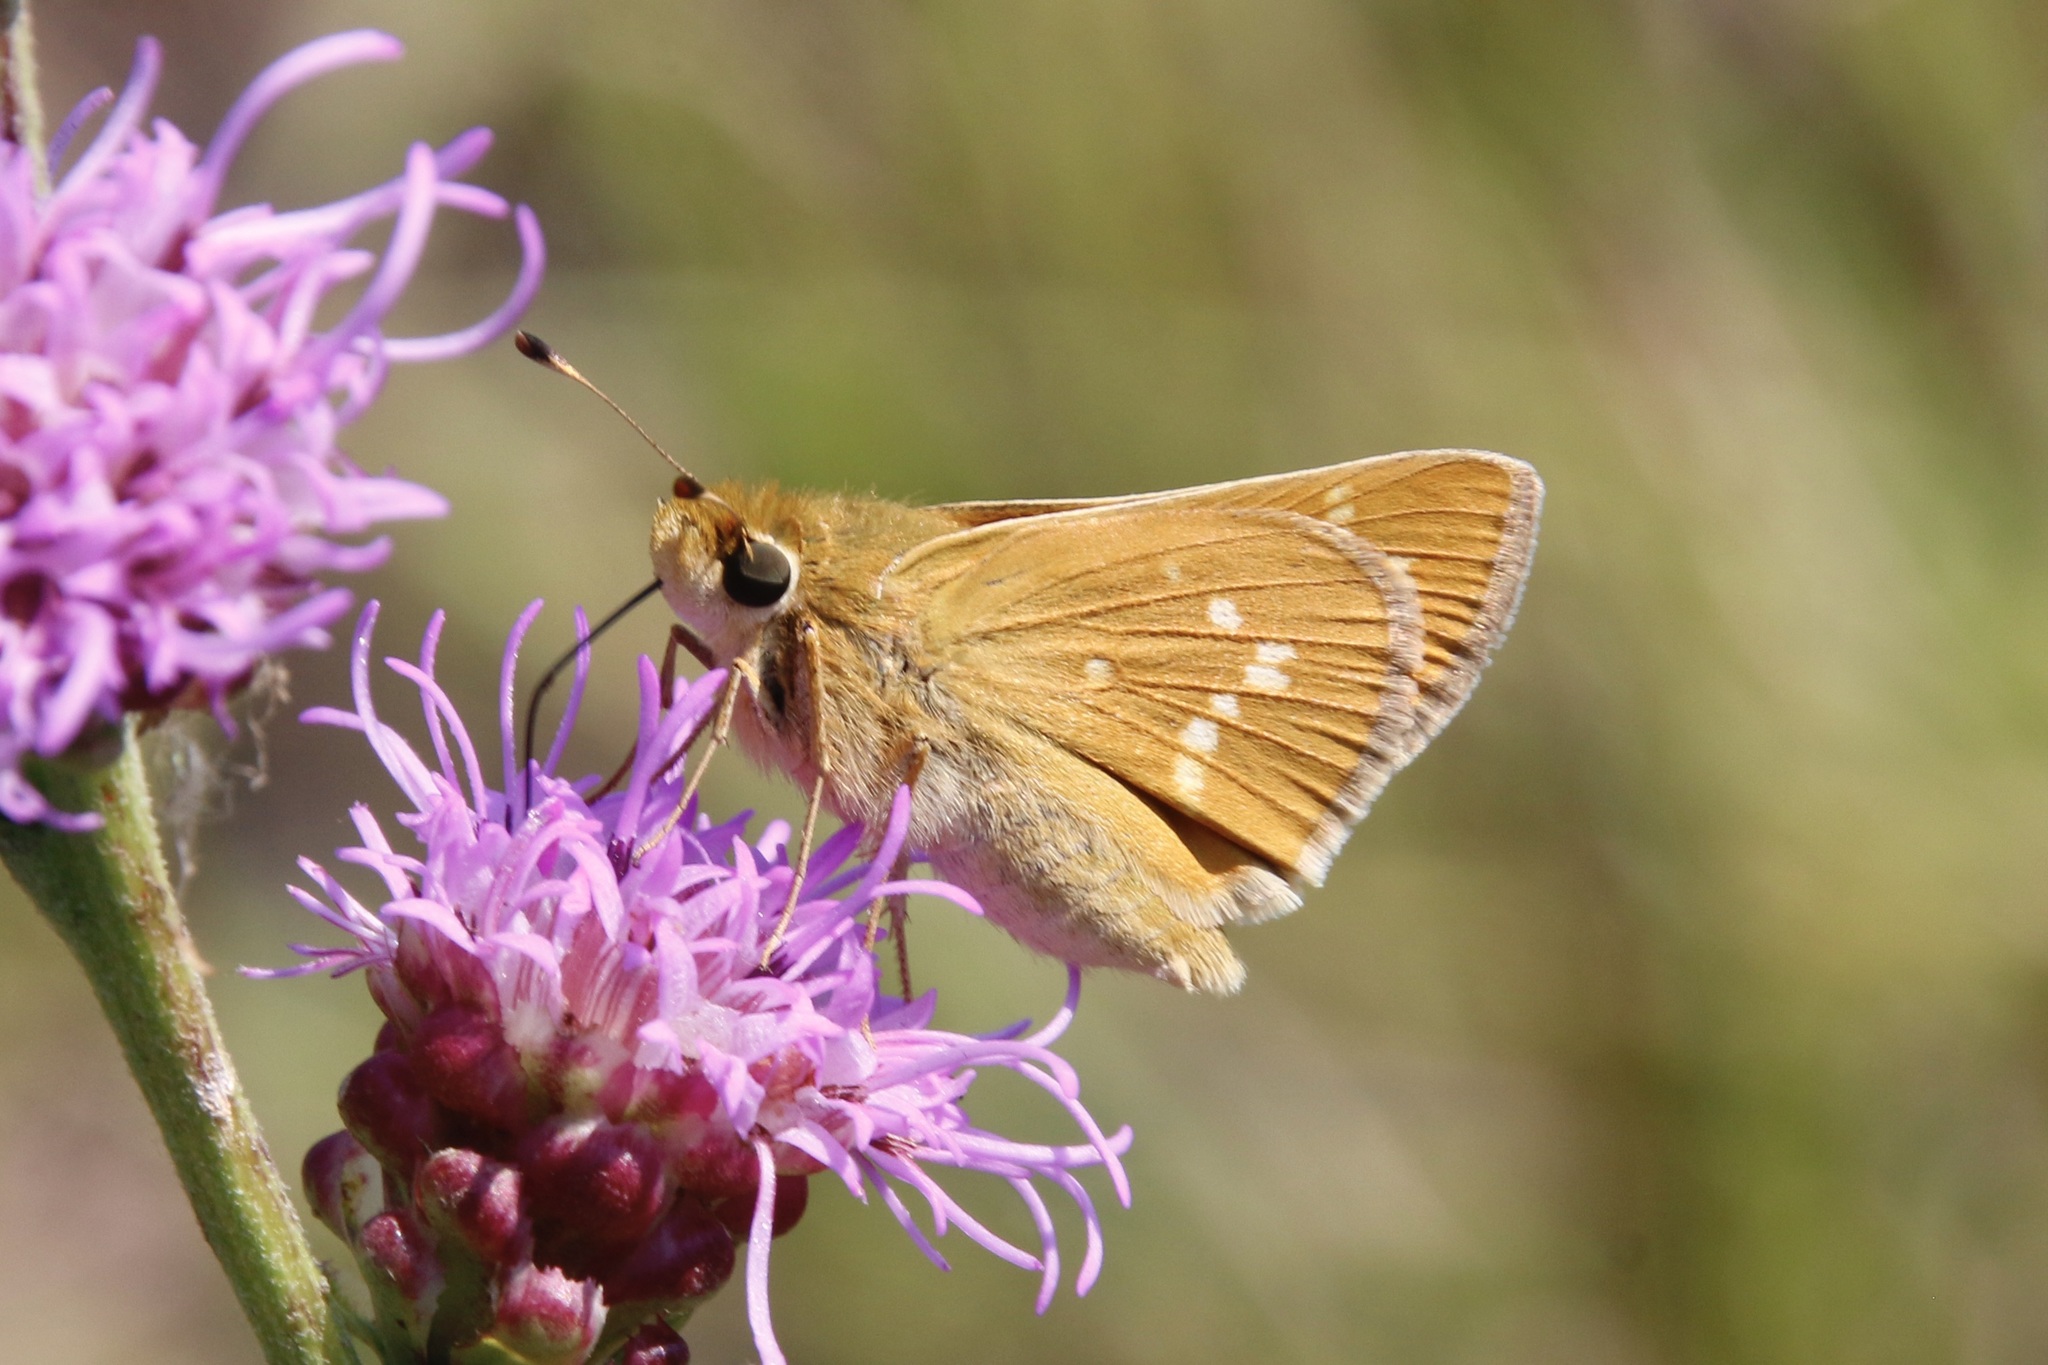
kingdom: Animalia
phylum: Arthropoda
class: Insecta
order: Lepidoptera
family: Hesperiidae
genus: Hesperia
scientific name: Hesperia leonardus
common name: Leonard's skipper
